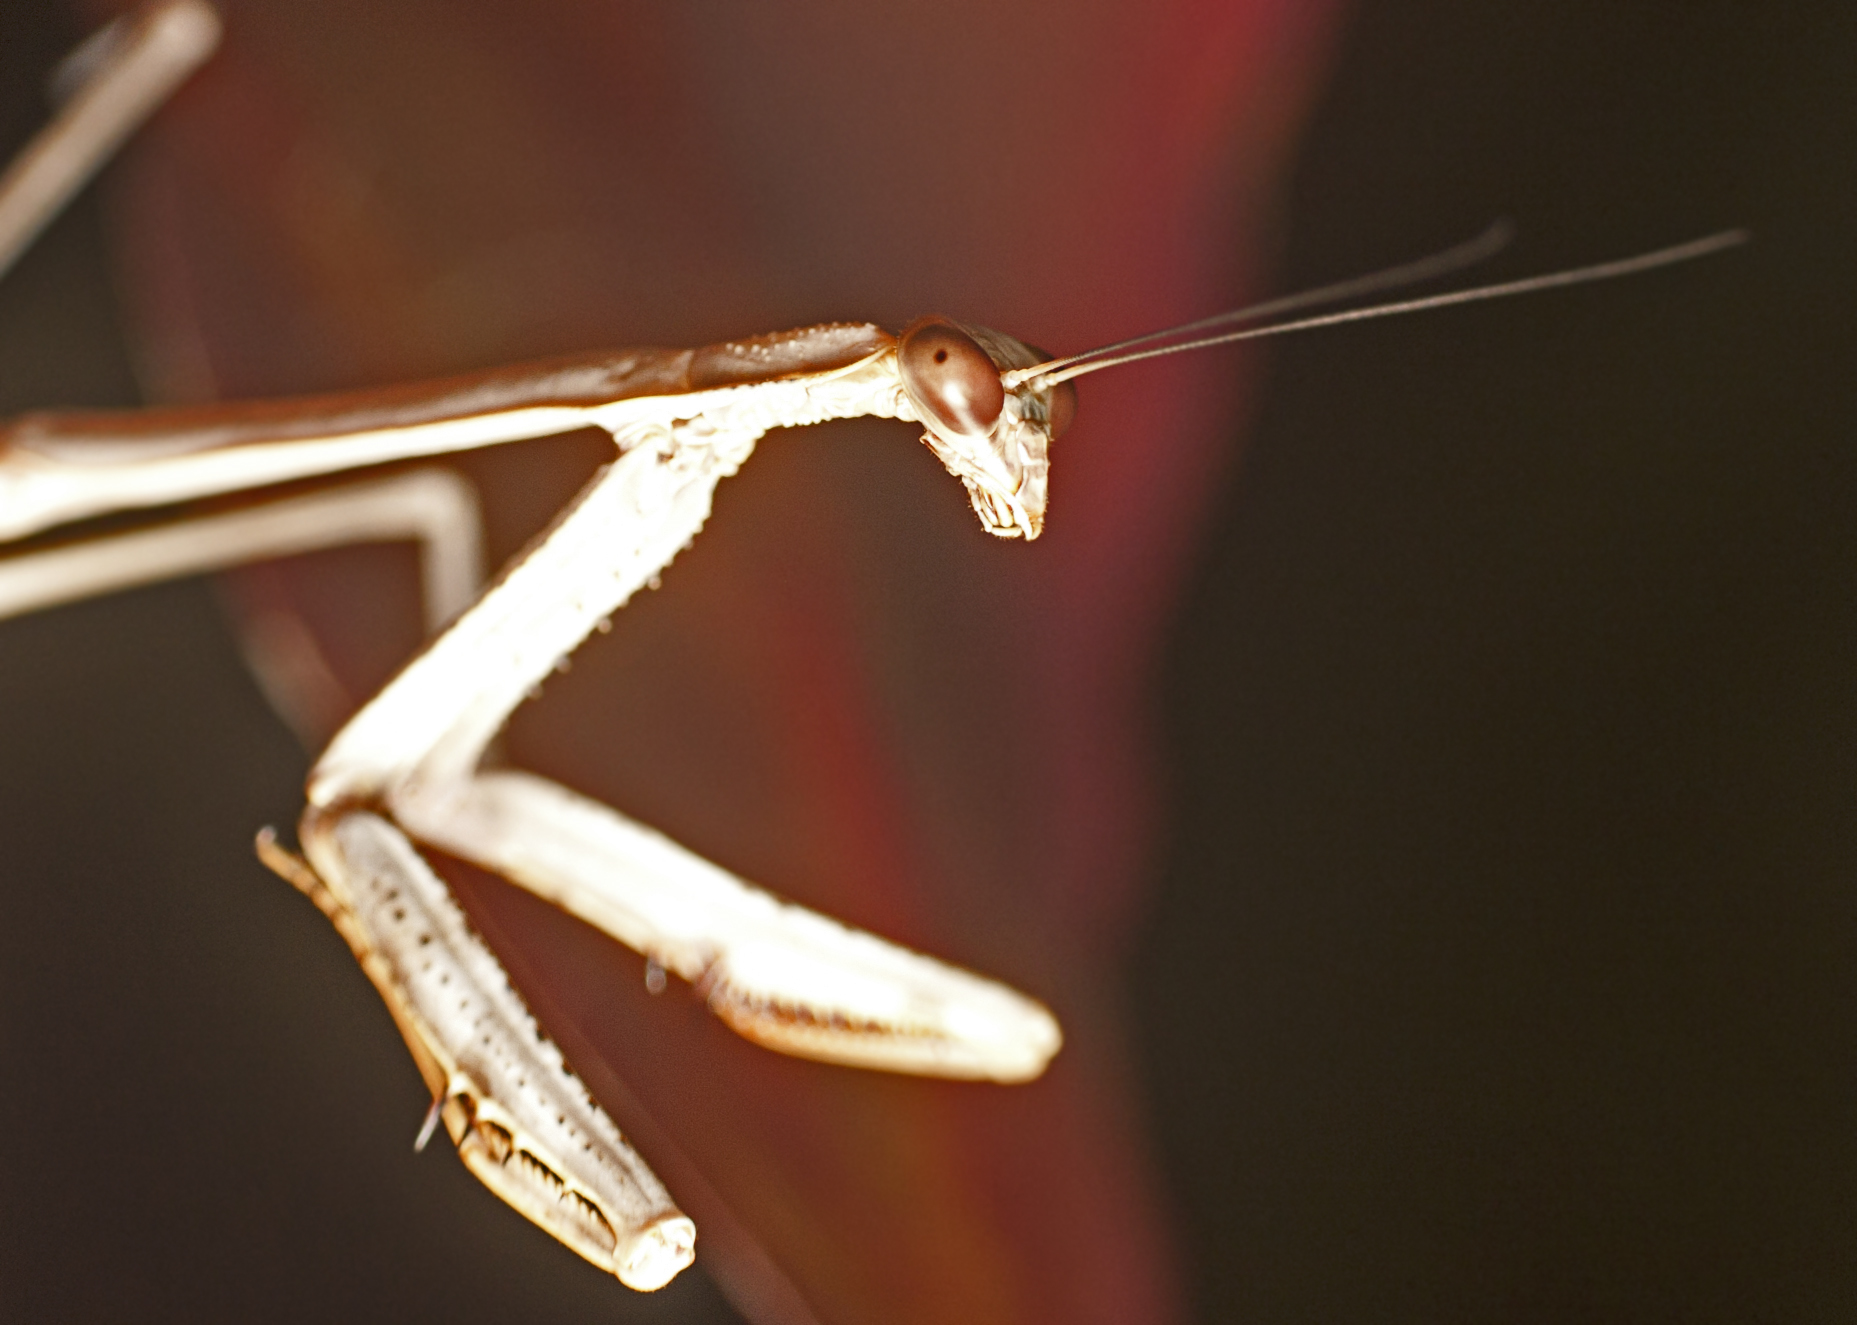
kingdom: Animalia
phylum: Arthropoda
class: Insecta
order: Mantodea
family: Mantidae
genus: Archimantis
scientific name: Archimantis latistyla
